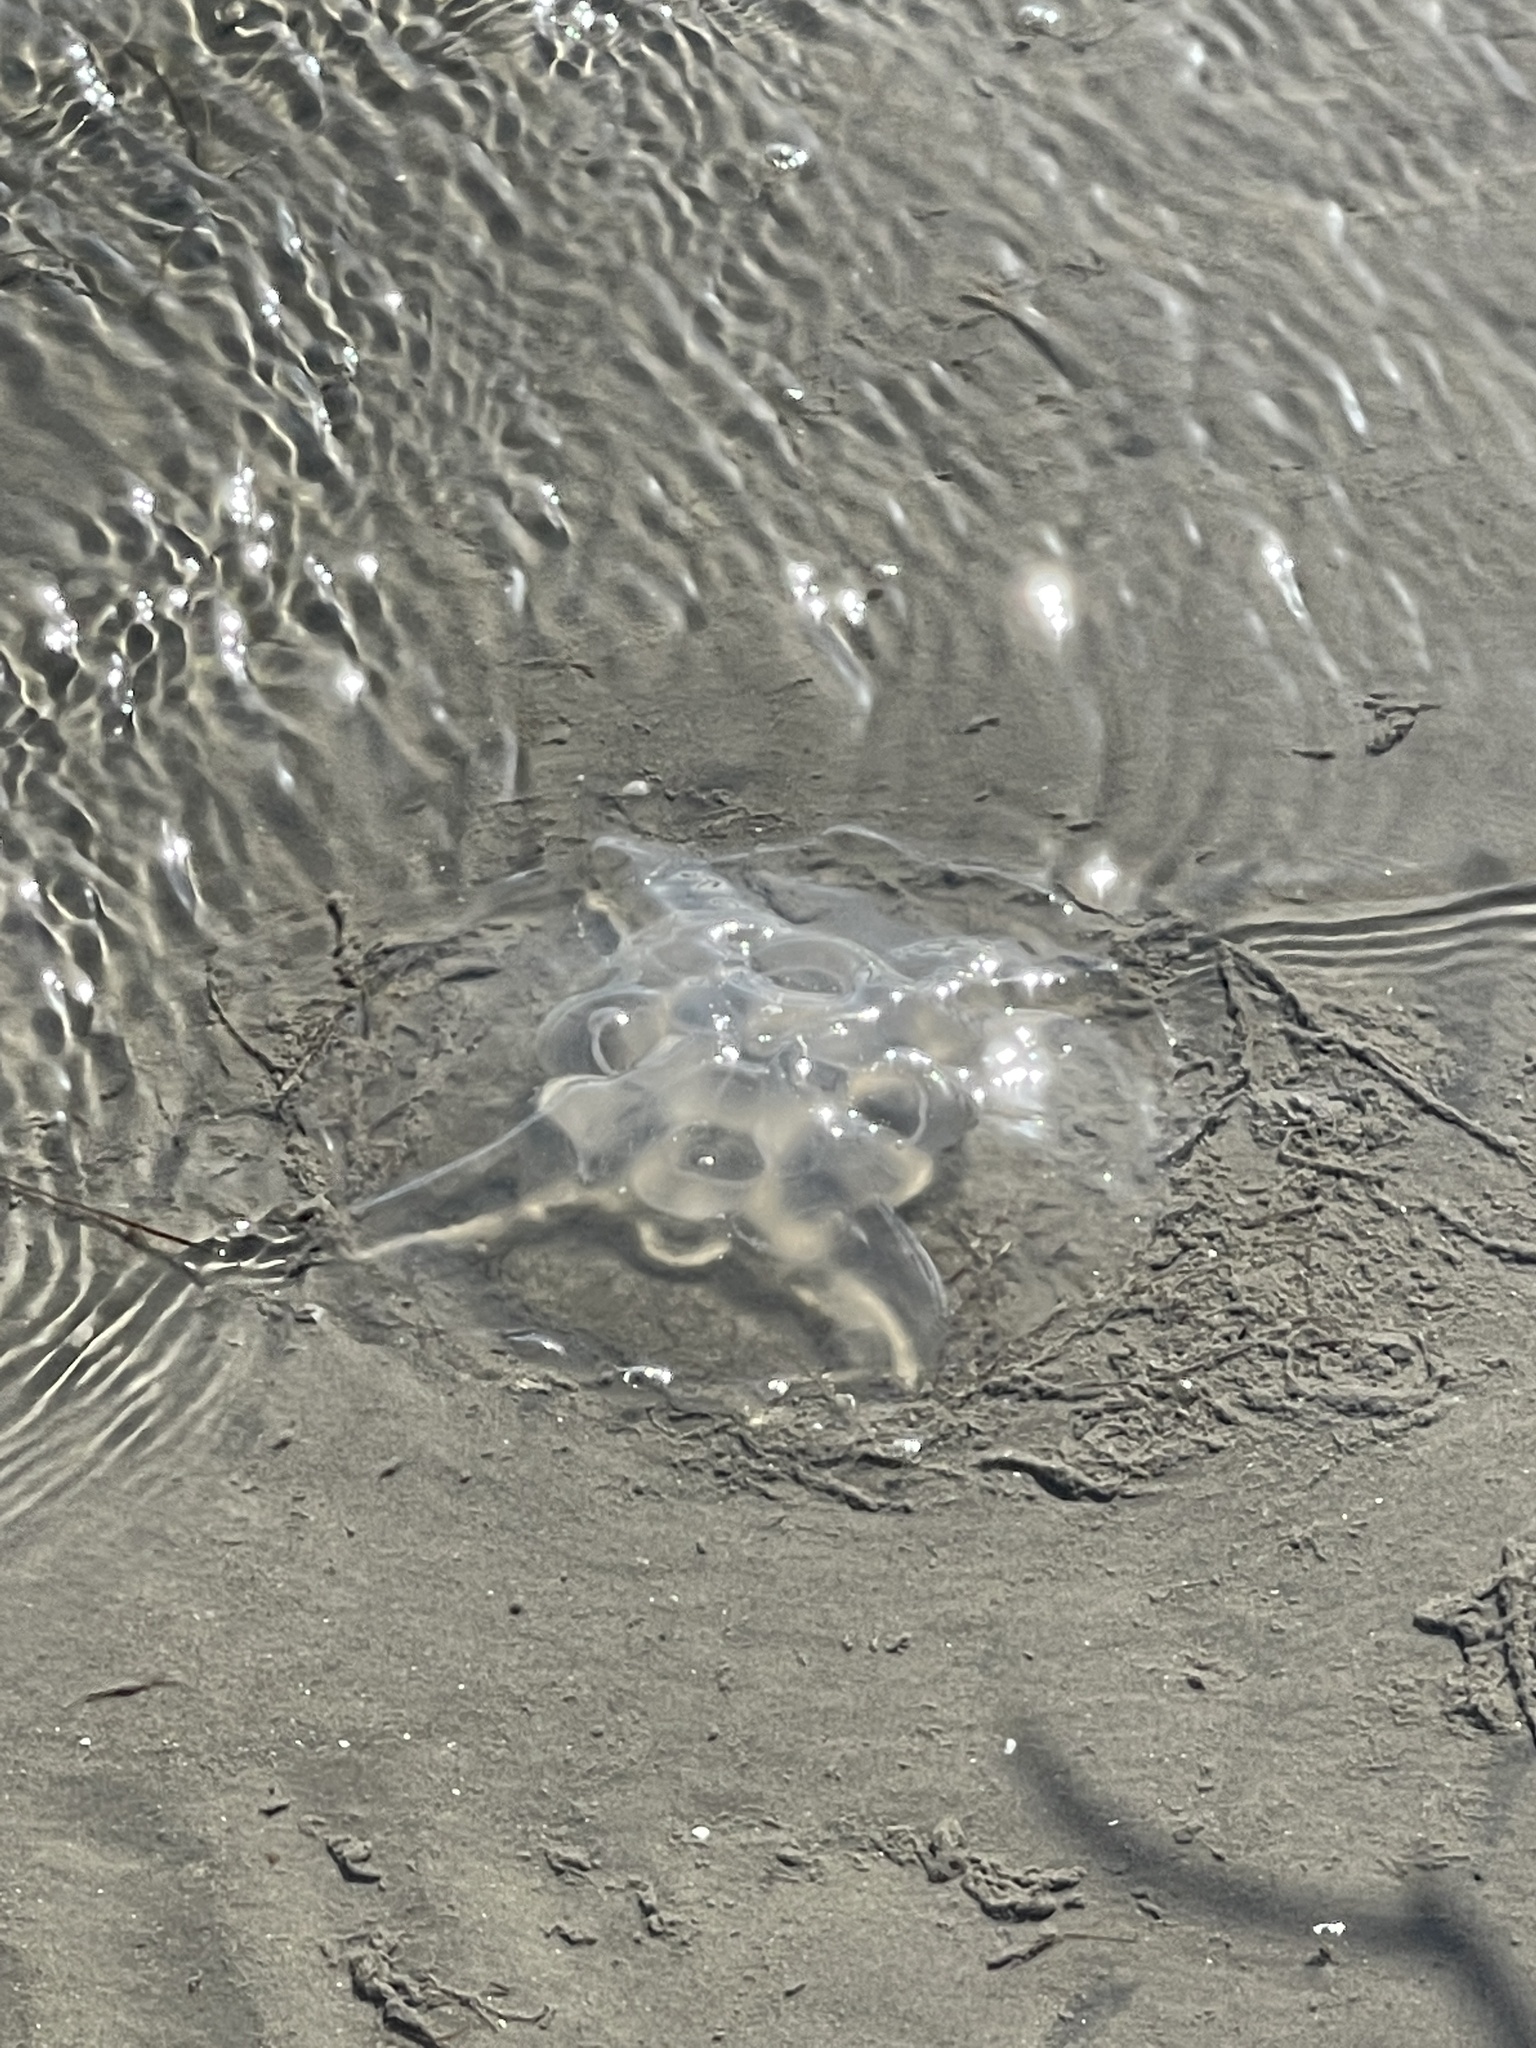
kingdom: Animalia
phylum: Cnidaria
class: Scyphozoa
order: Semaeostomeae
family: Ulmaridae
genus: Aurelia
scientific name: Aurelia marginalis
